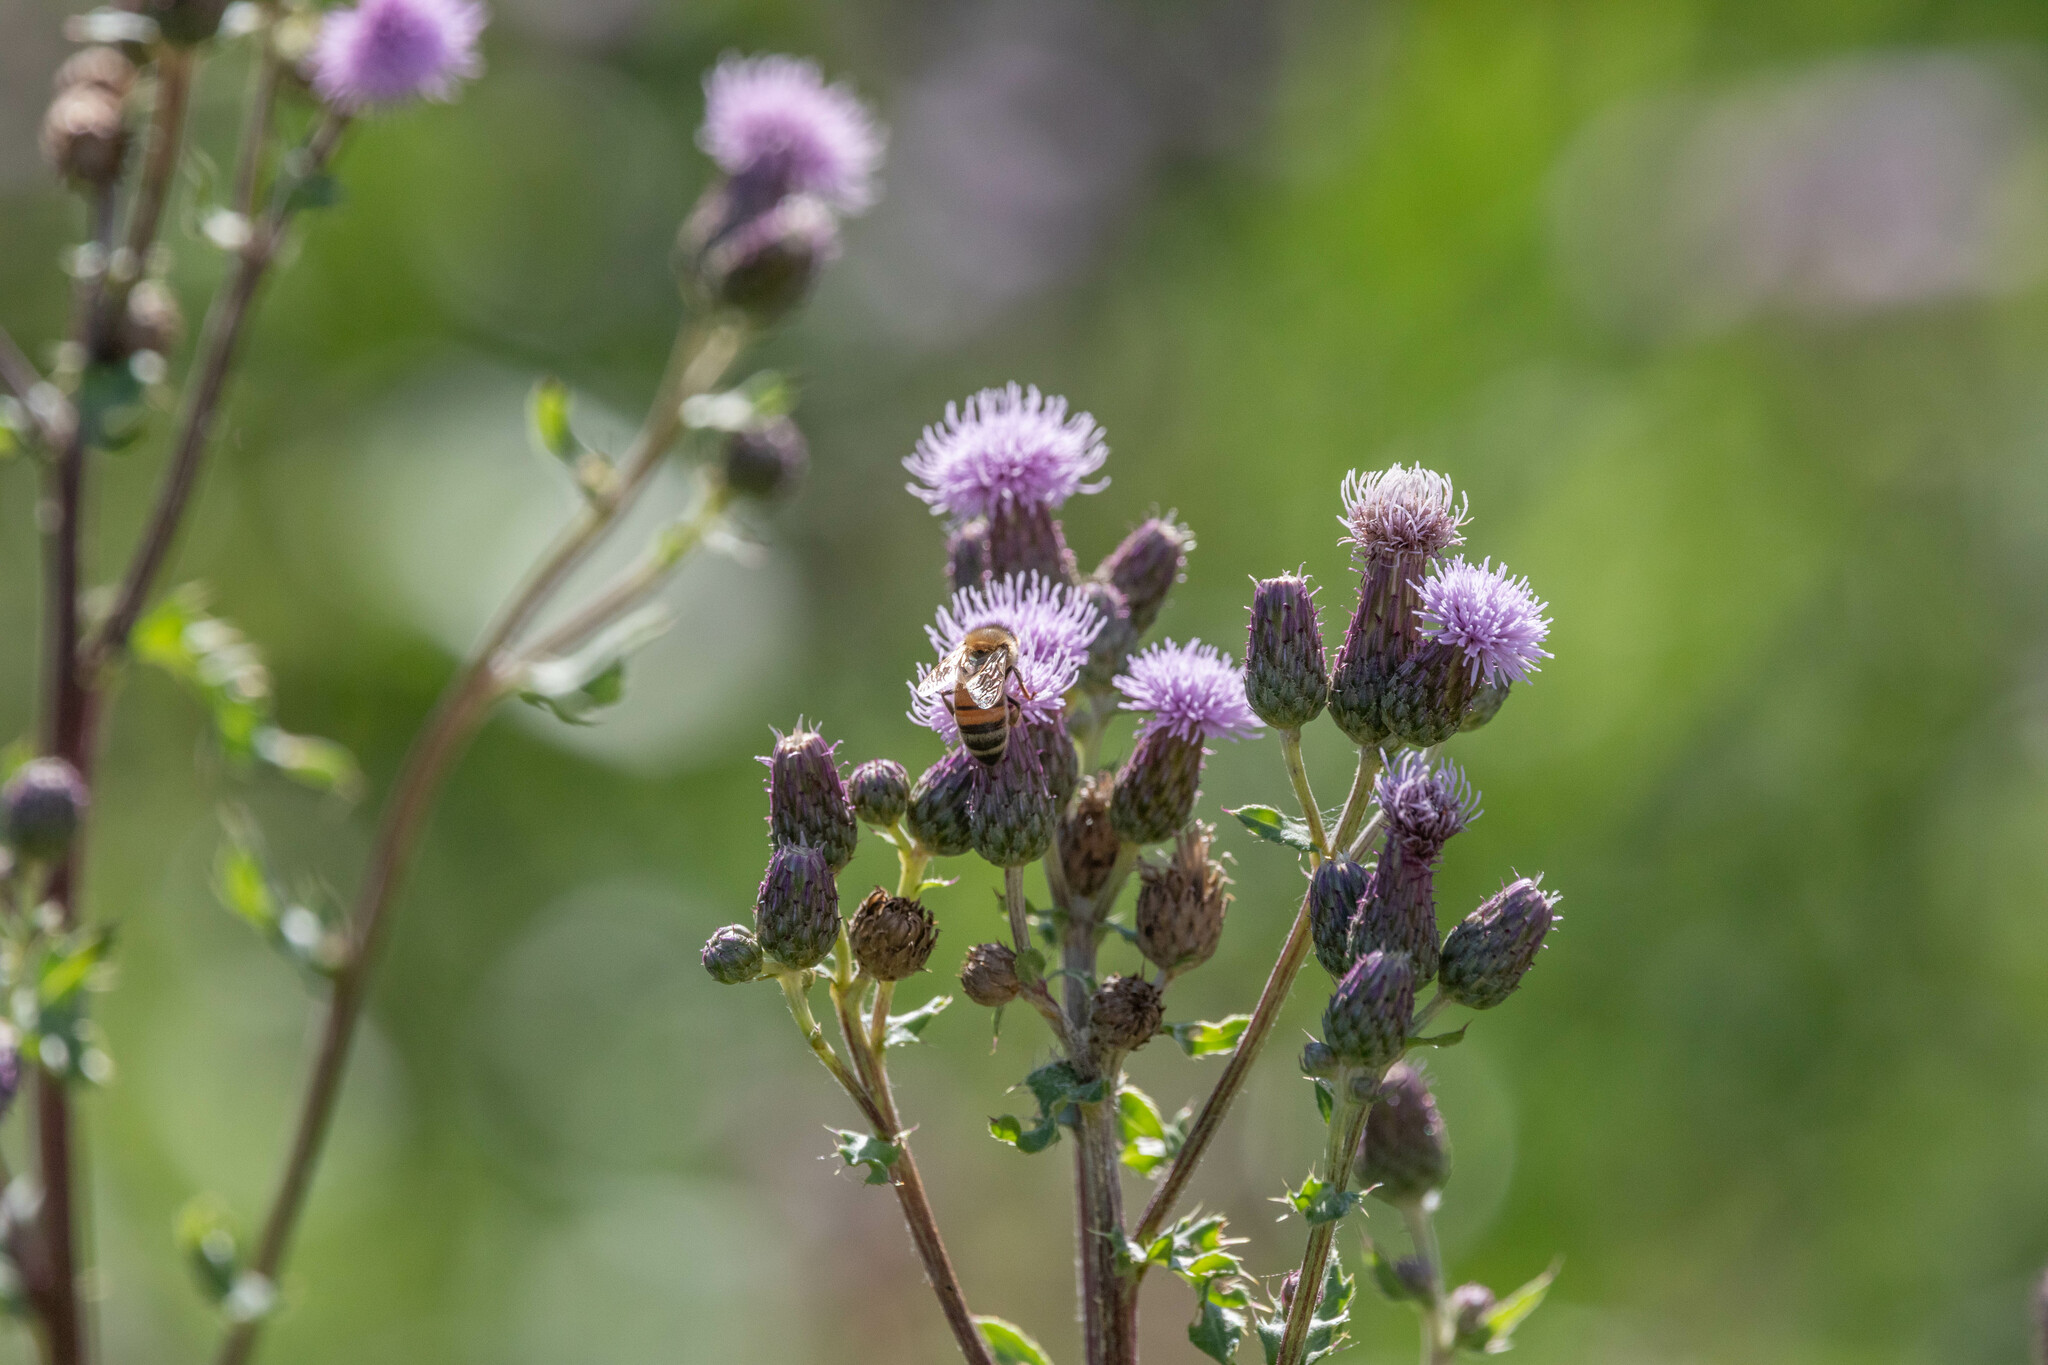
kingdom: Plantae
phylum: Tracheophyta
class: Magnoliopsida
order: Asterales
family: Asteraceae
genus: Cirsium
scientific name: Cirsium arvense
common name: Creeping thistle
